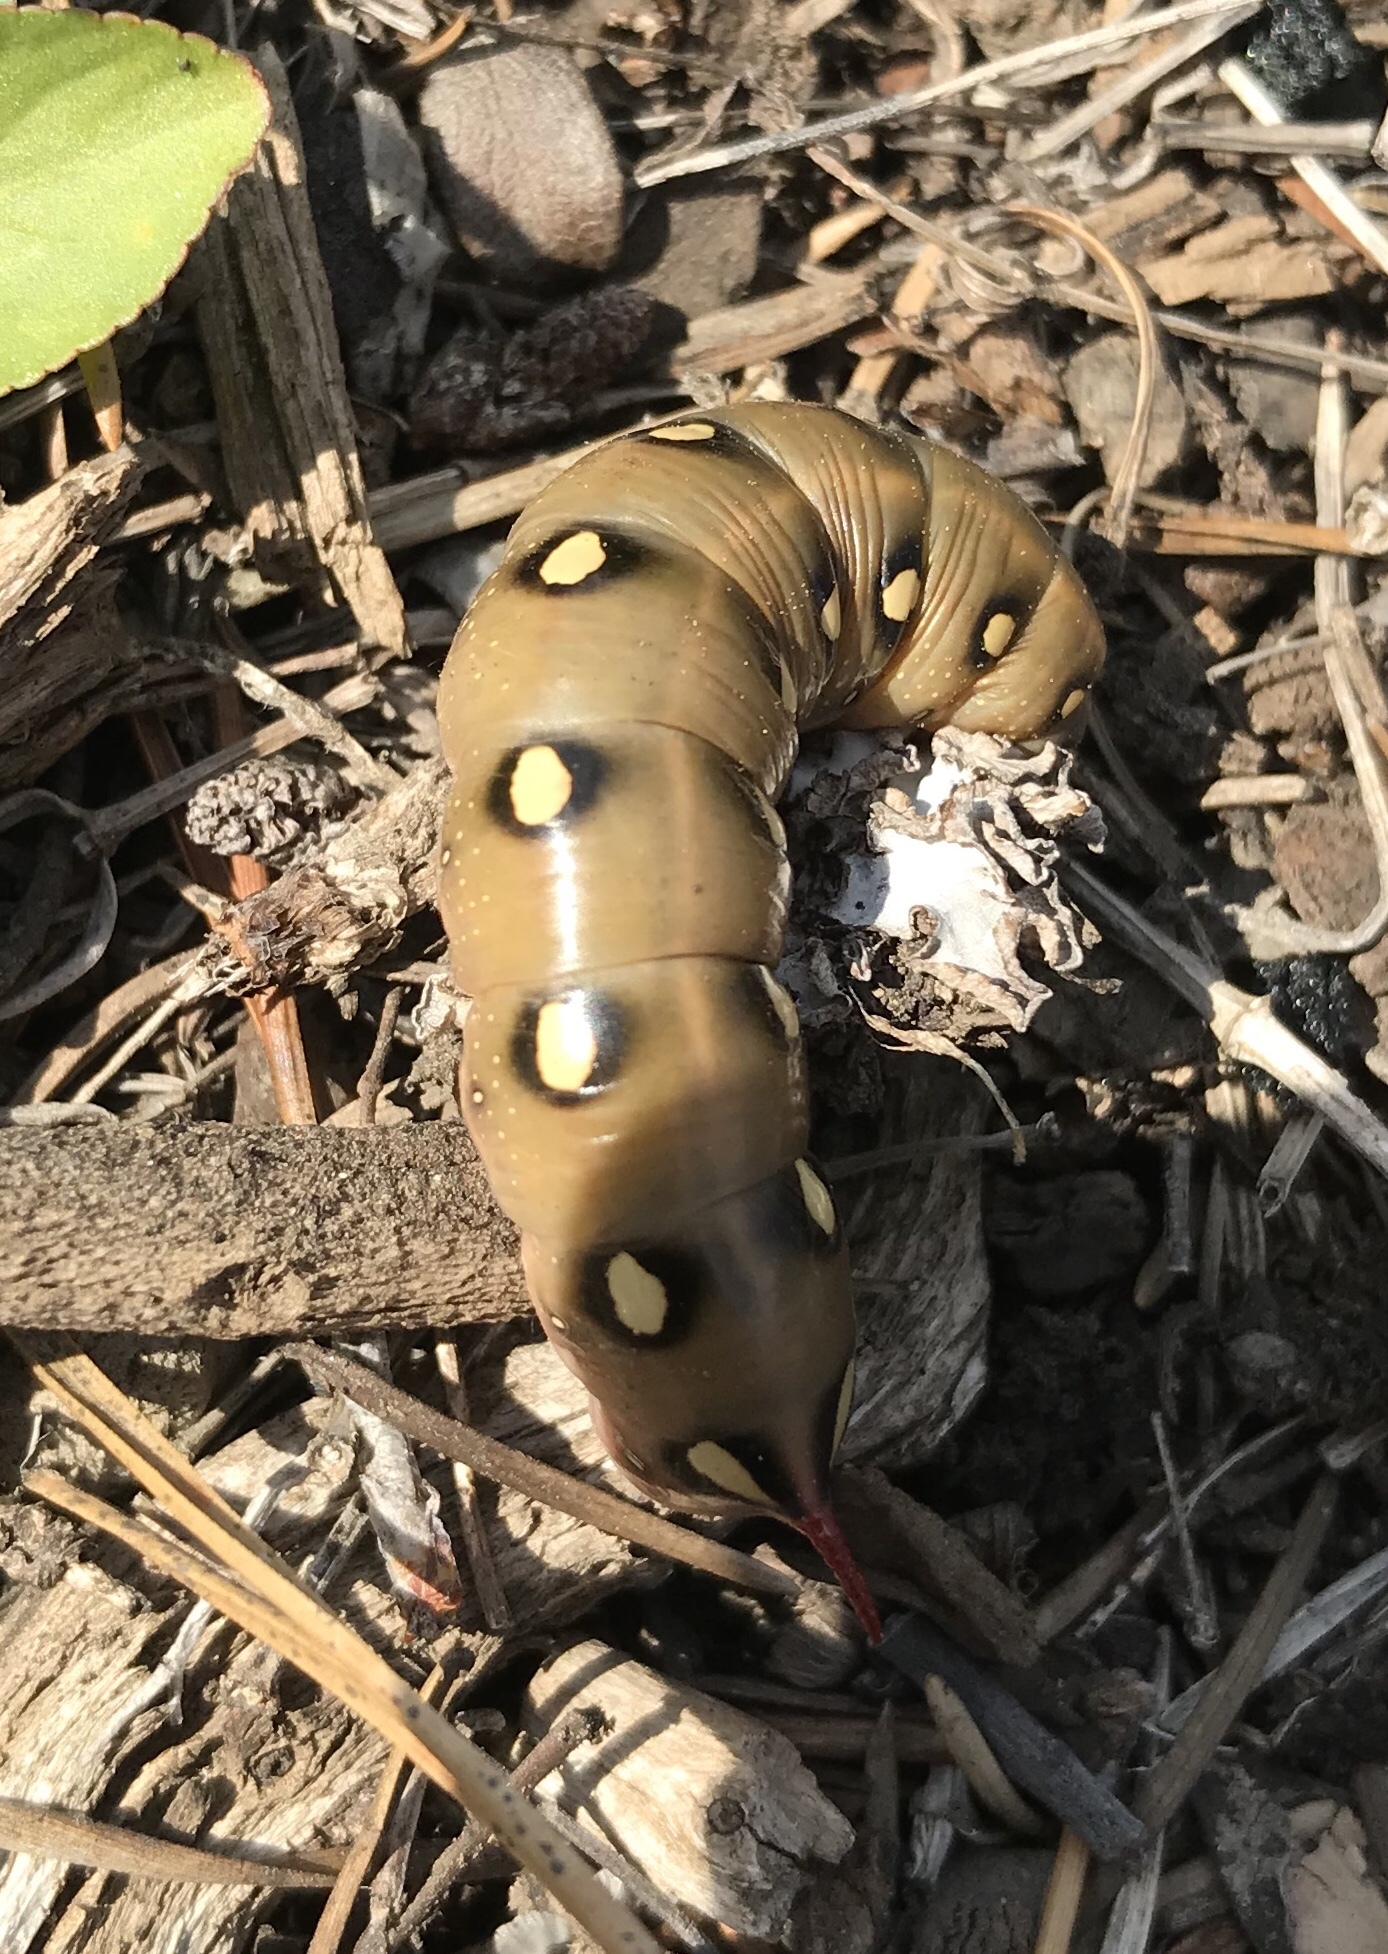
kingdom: Animalia
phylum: Arthropoda
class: Insecta
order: Lepidoptera
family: Sphingidae
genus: Hyles
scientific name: Hyles gallii
